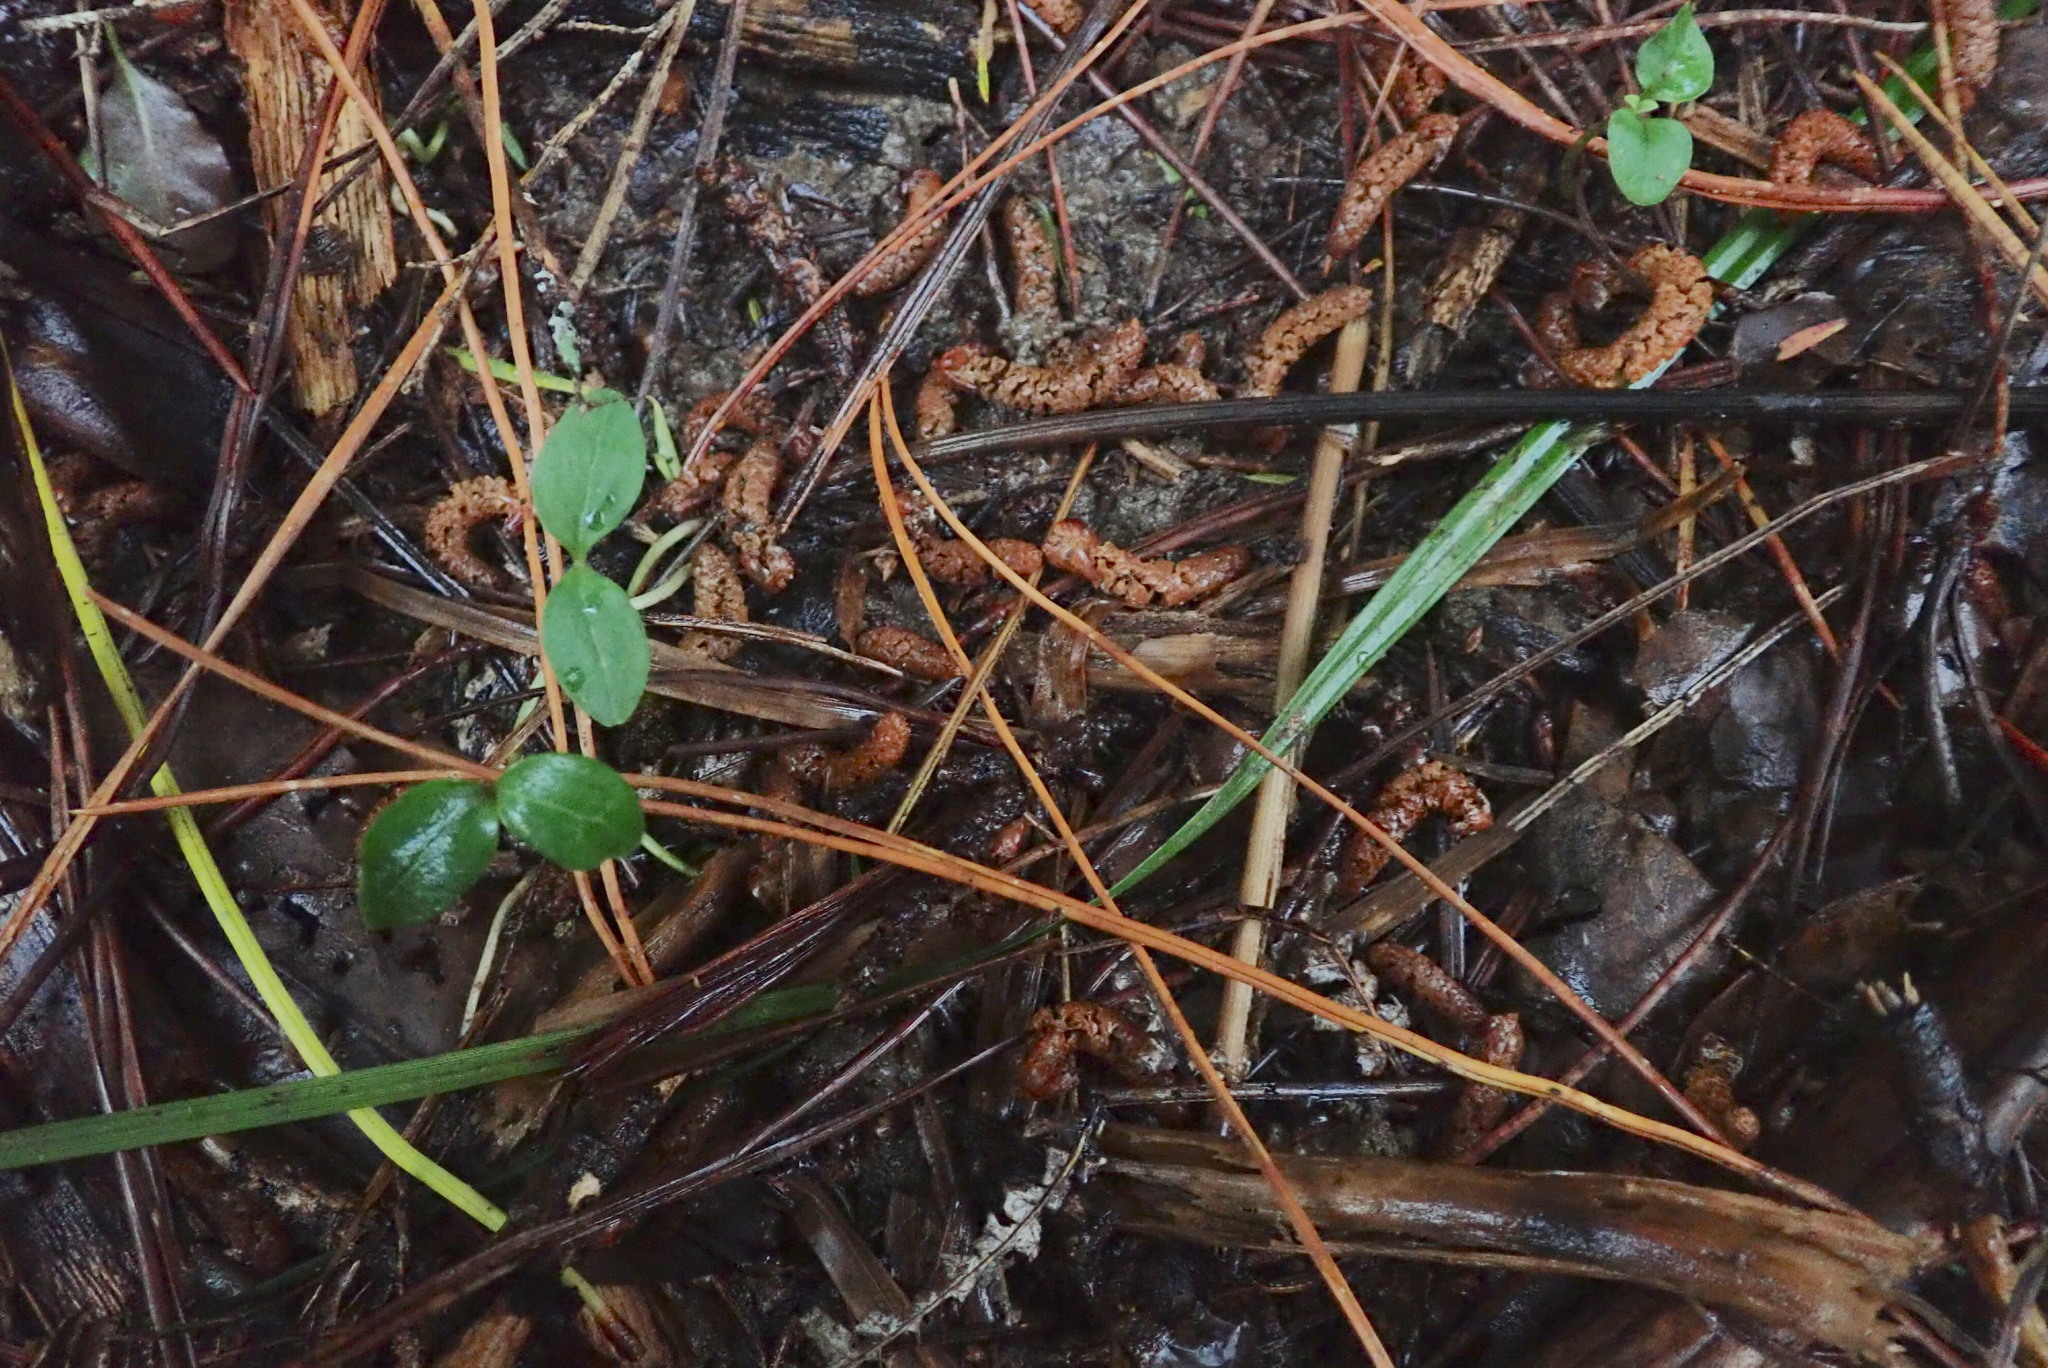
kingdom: Plantae
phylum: Tracheophyta
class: Magnoliopsida
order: Lamiales
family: Oleaceae
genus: Ligustrum
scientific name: Ligustrum lucidum
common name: Glossy privet
